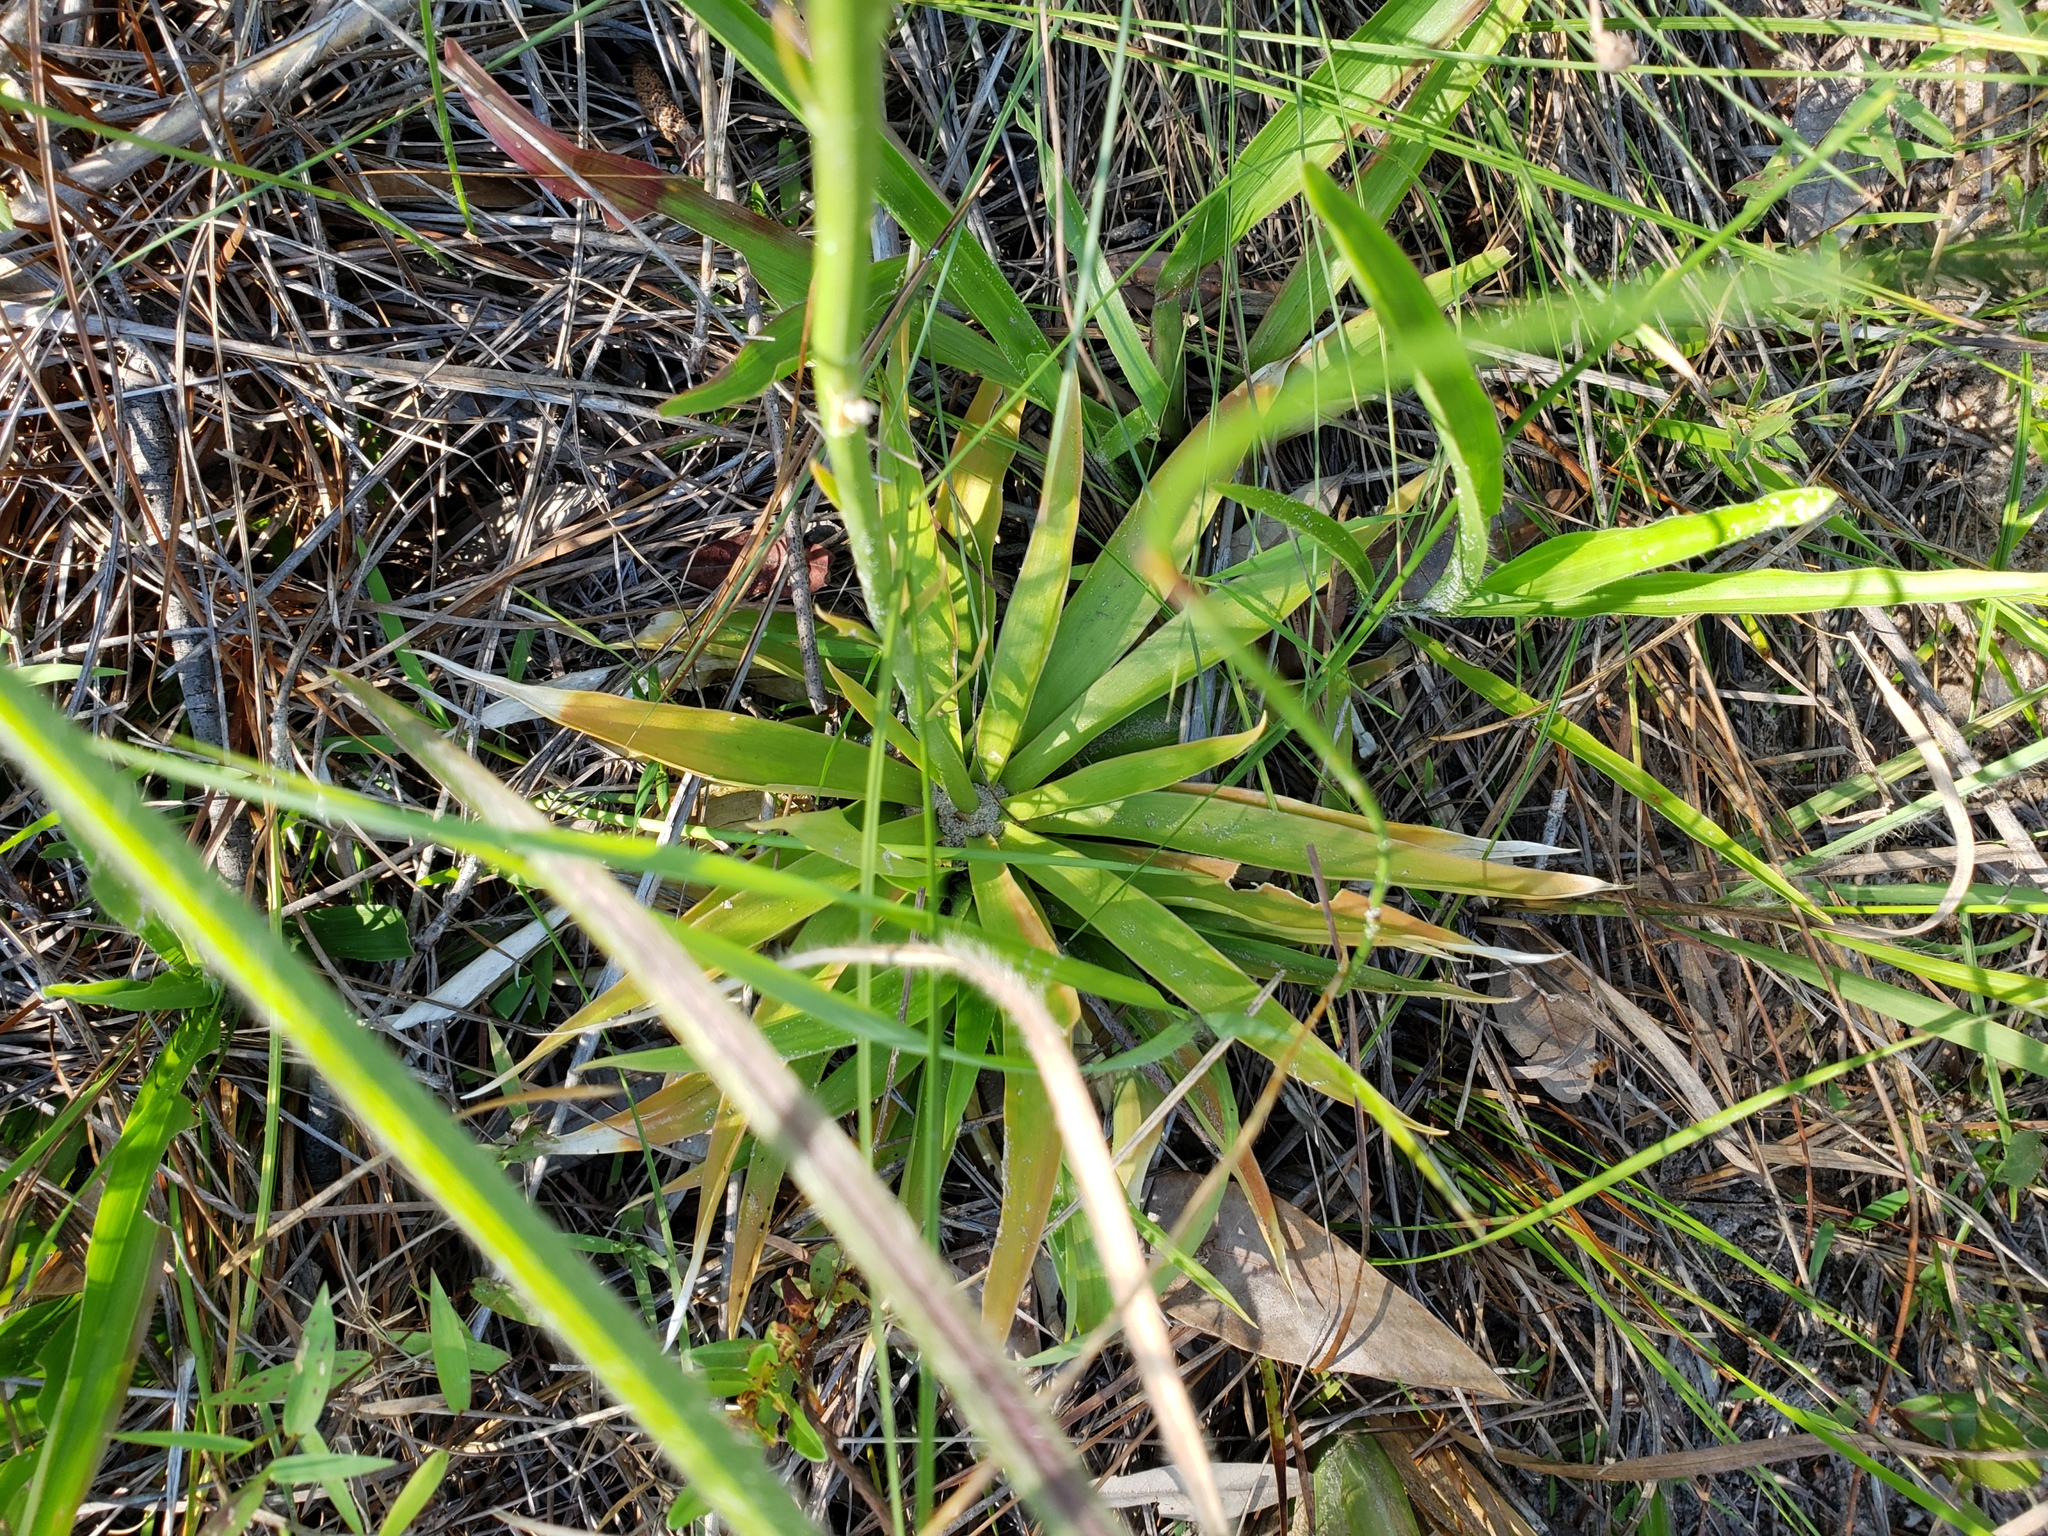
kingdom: Plantae
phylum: Tracheophyta
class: Liliopsida
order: Dioscoreales
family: Nartheciaceae
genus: Aletris
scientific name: Aletris lutea
